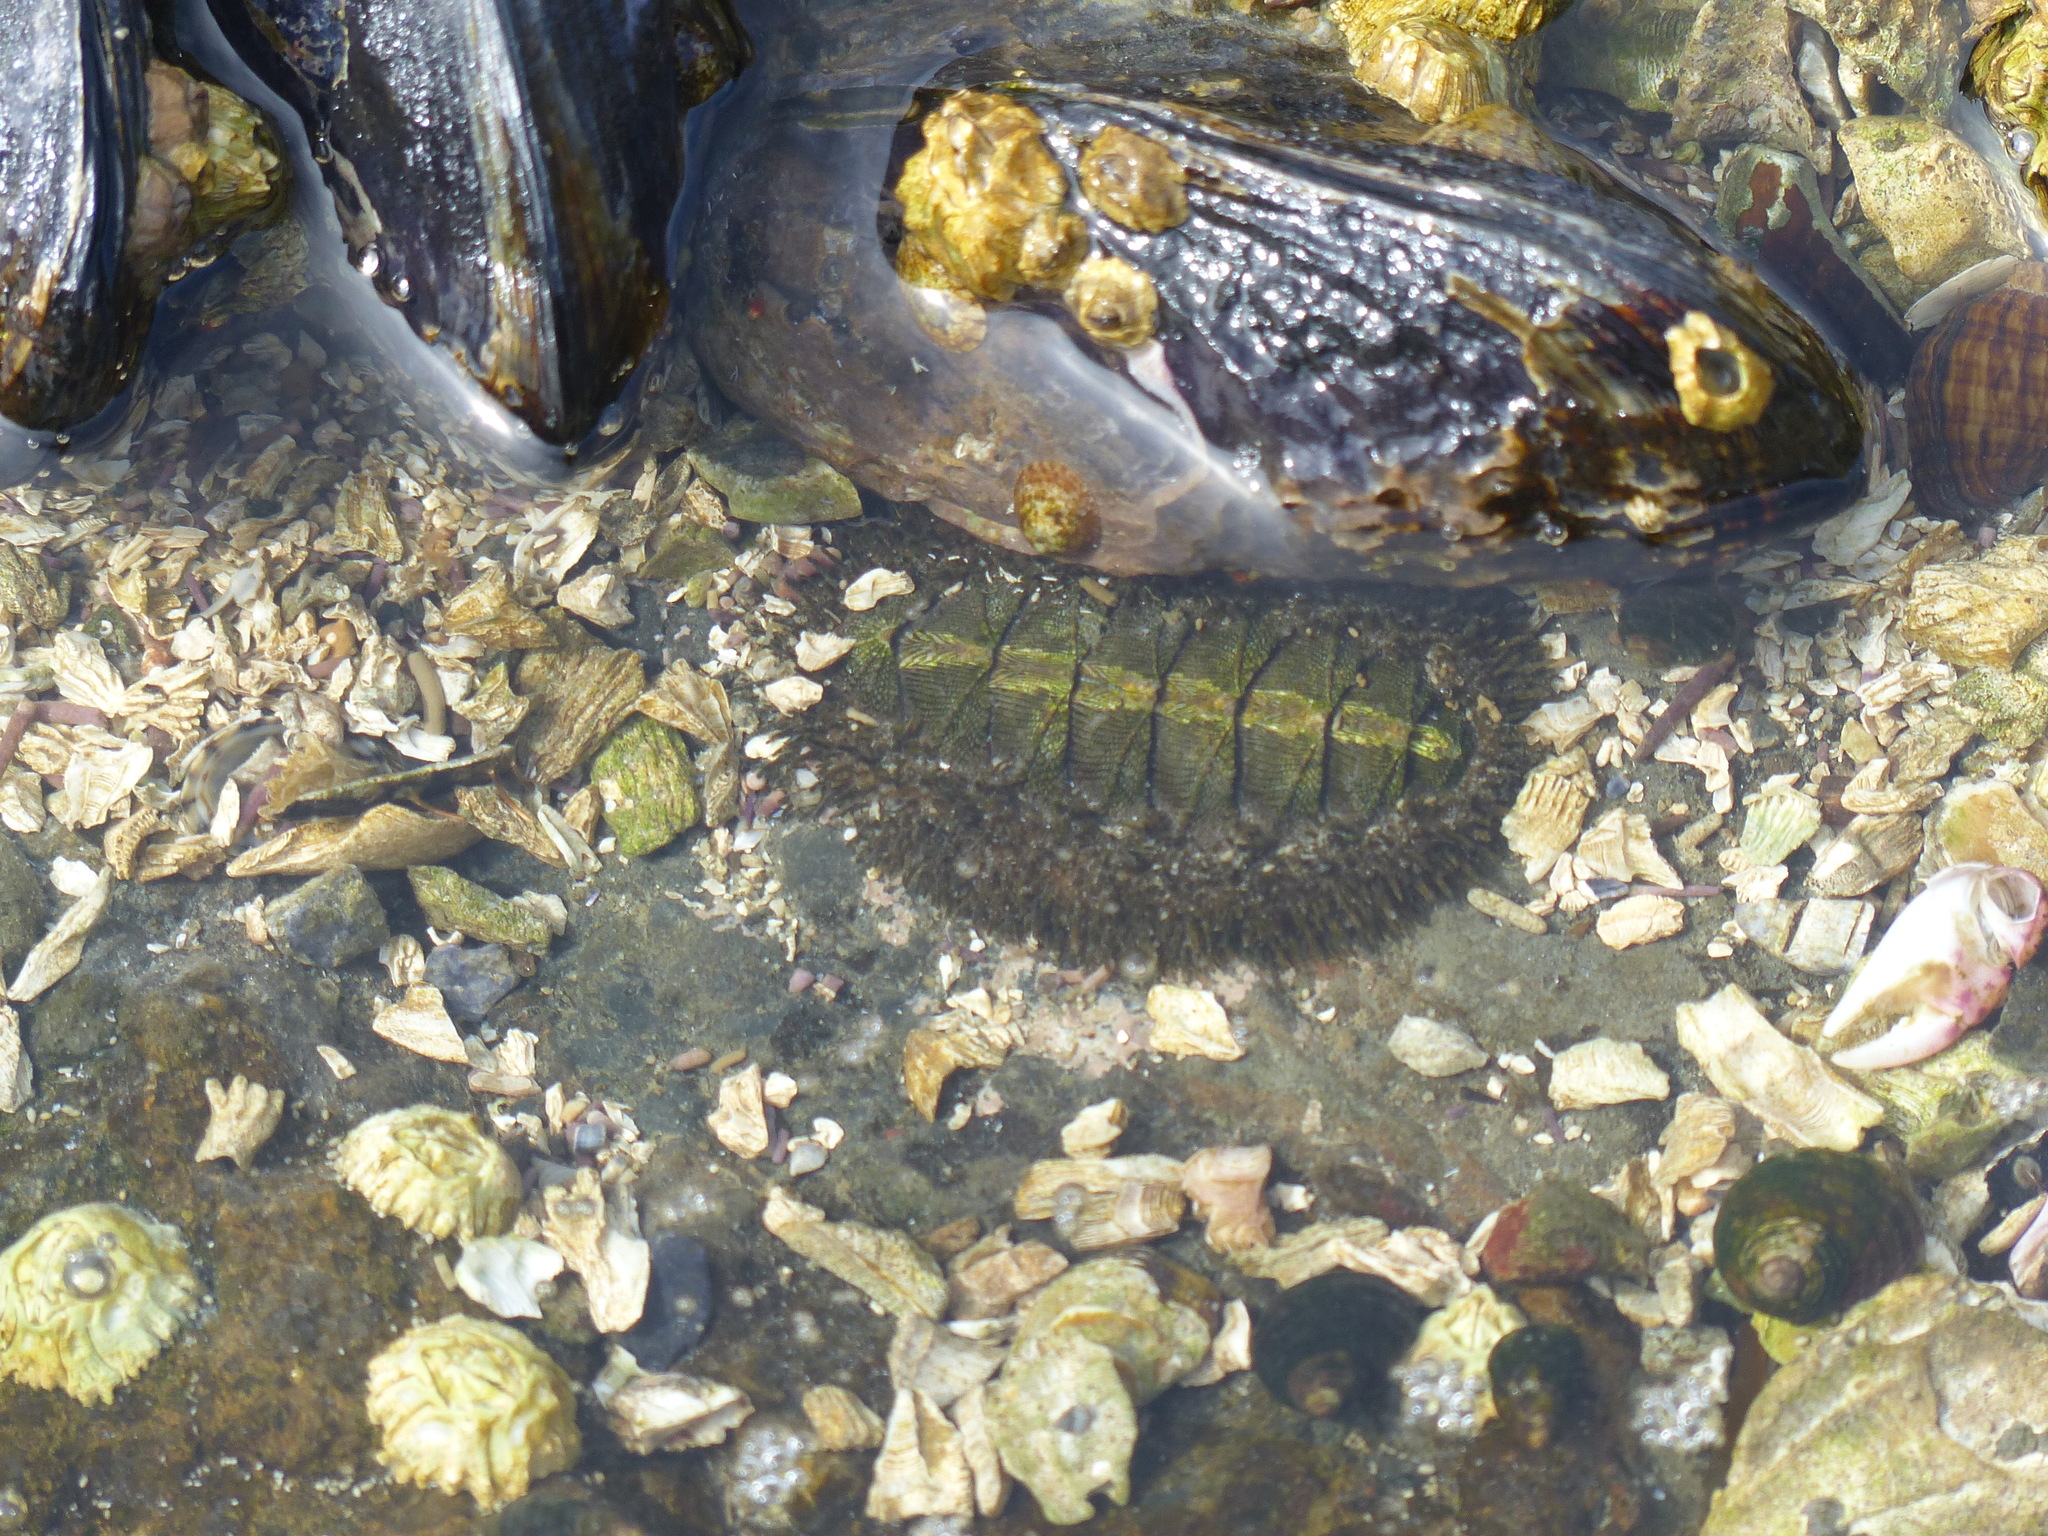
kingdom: Animalia
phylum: Mollusca
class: Polyplacophora
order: Chitonida
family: Mopaliidae
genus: Mopalia
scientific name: Mopalia muscosa
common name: Mossy chiton
